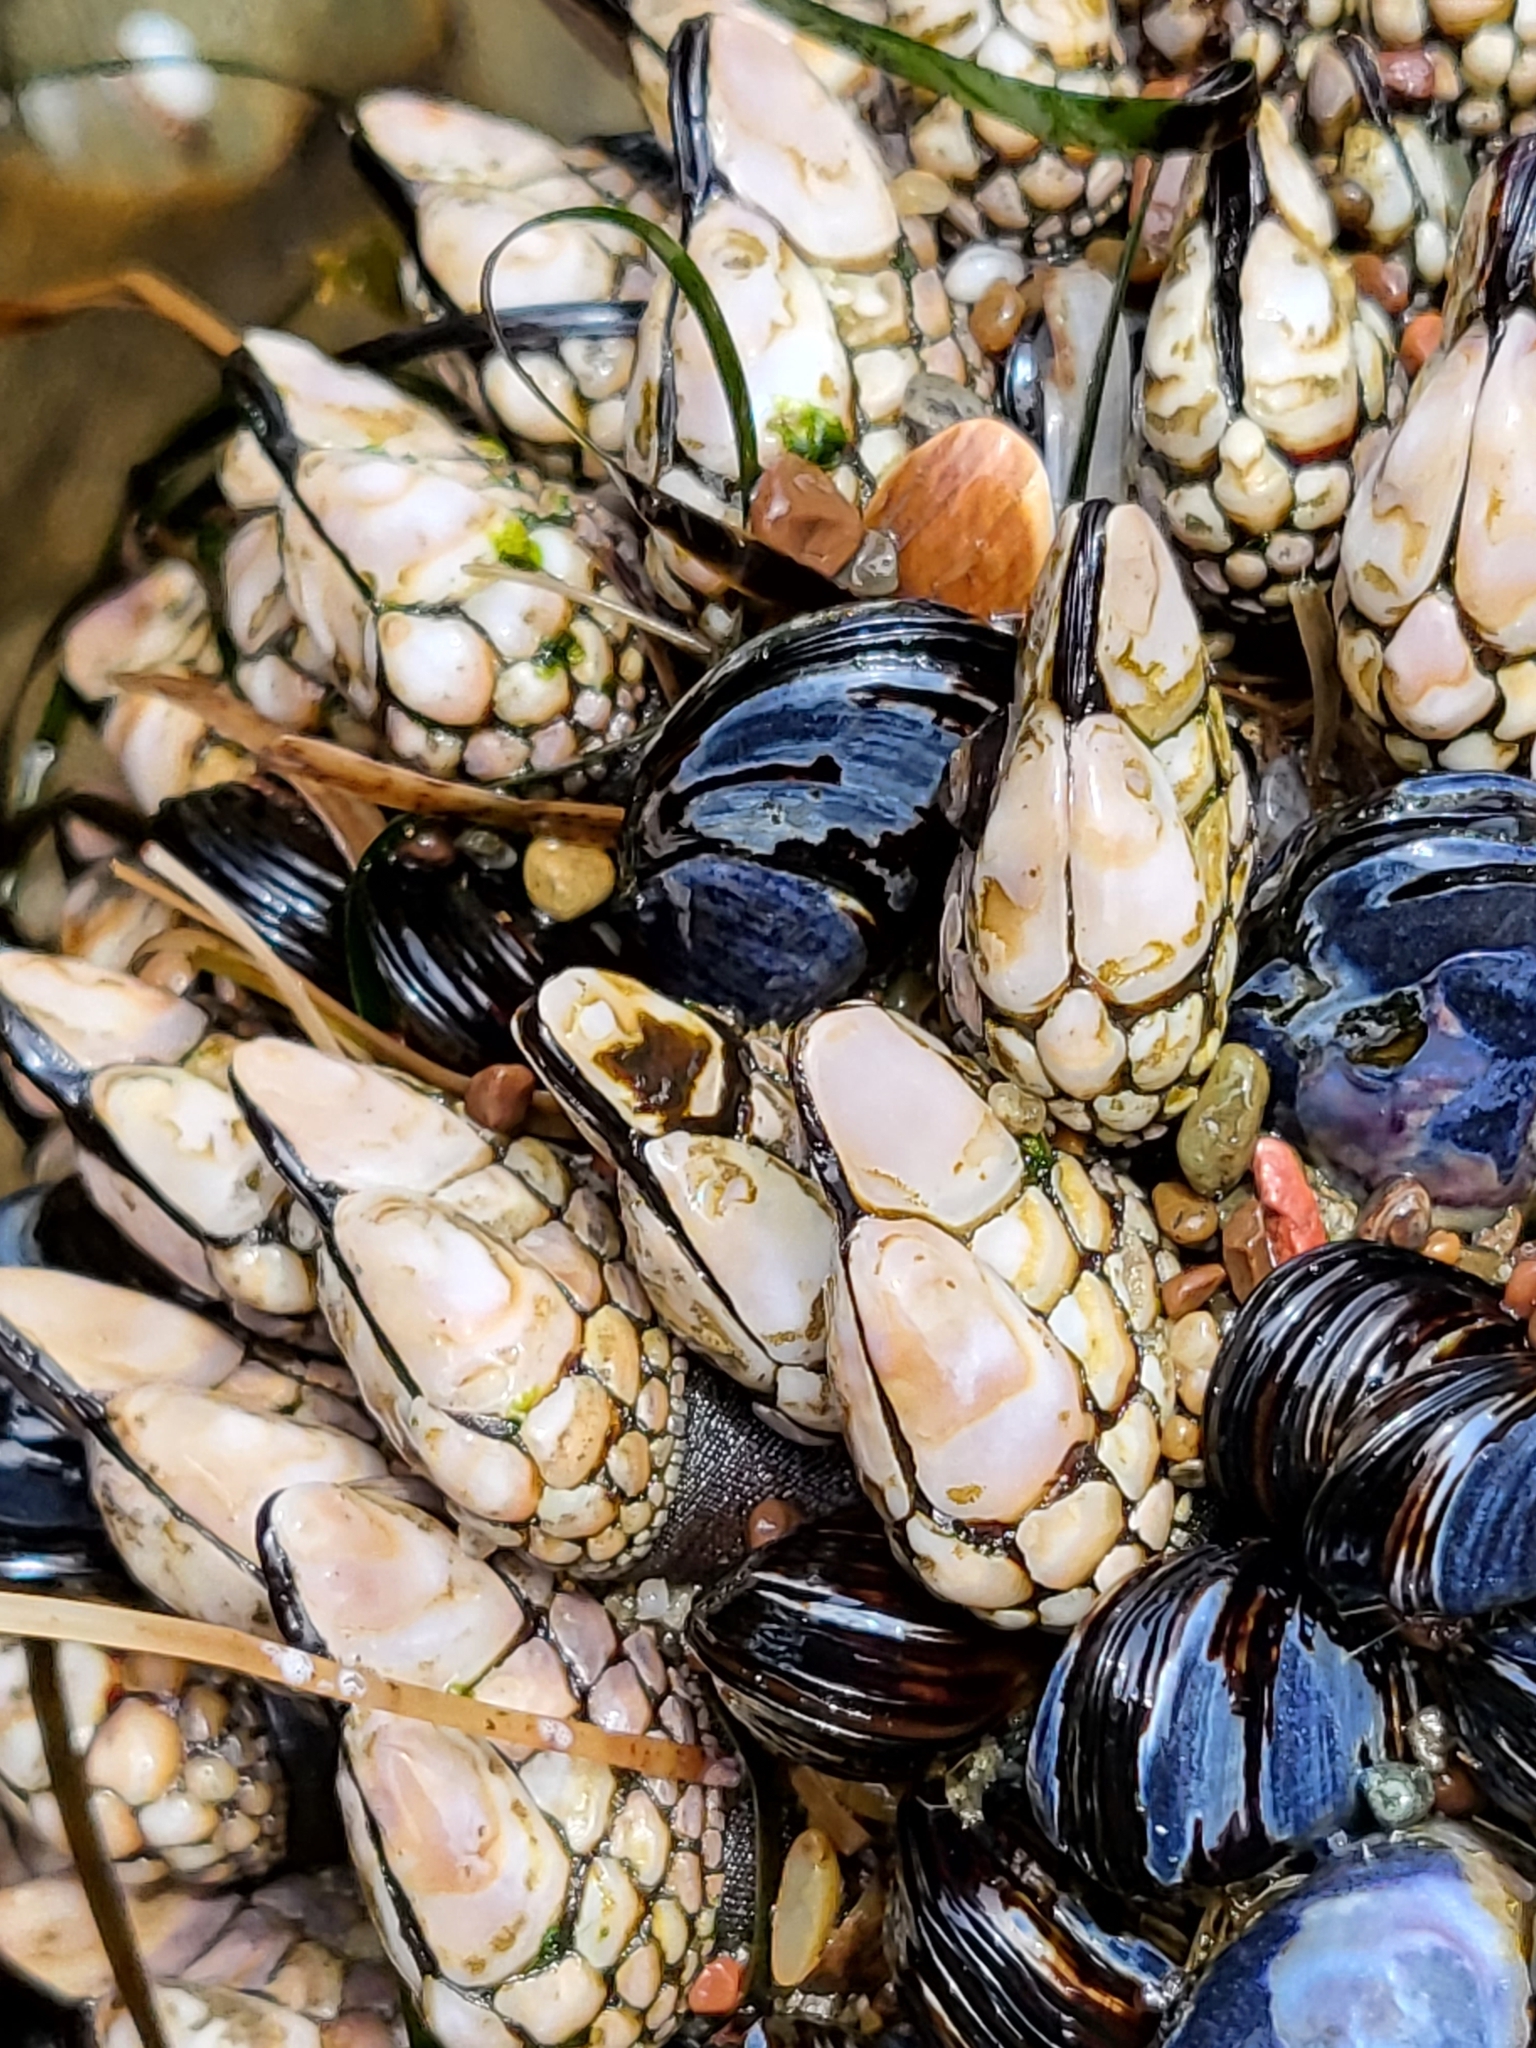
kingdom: Animalia
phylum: Arthropoda
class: Maxillopoda
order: Pedunculata
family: Pollicipedidae
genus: Pollicipes
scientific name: Pollicipes polymerus
